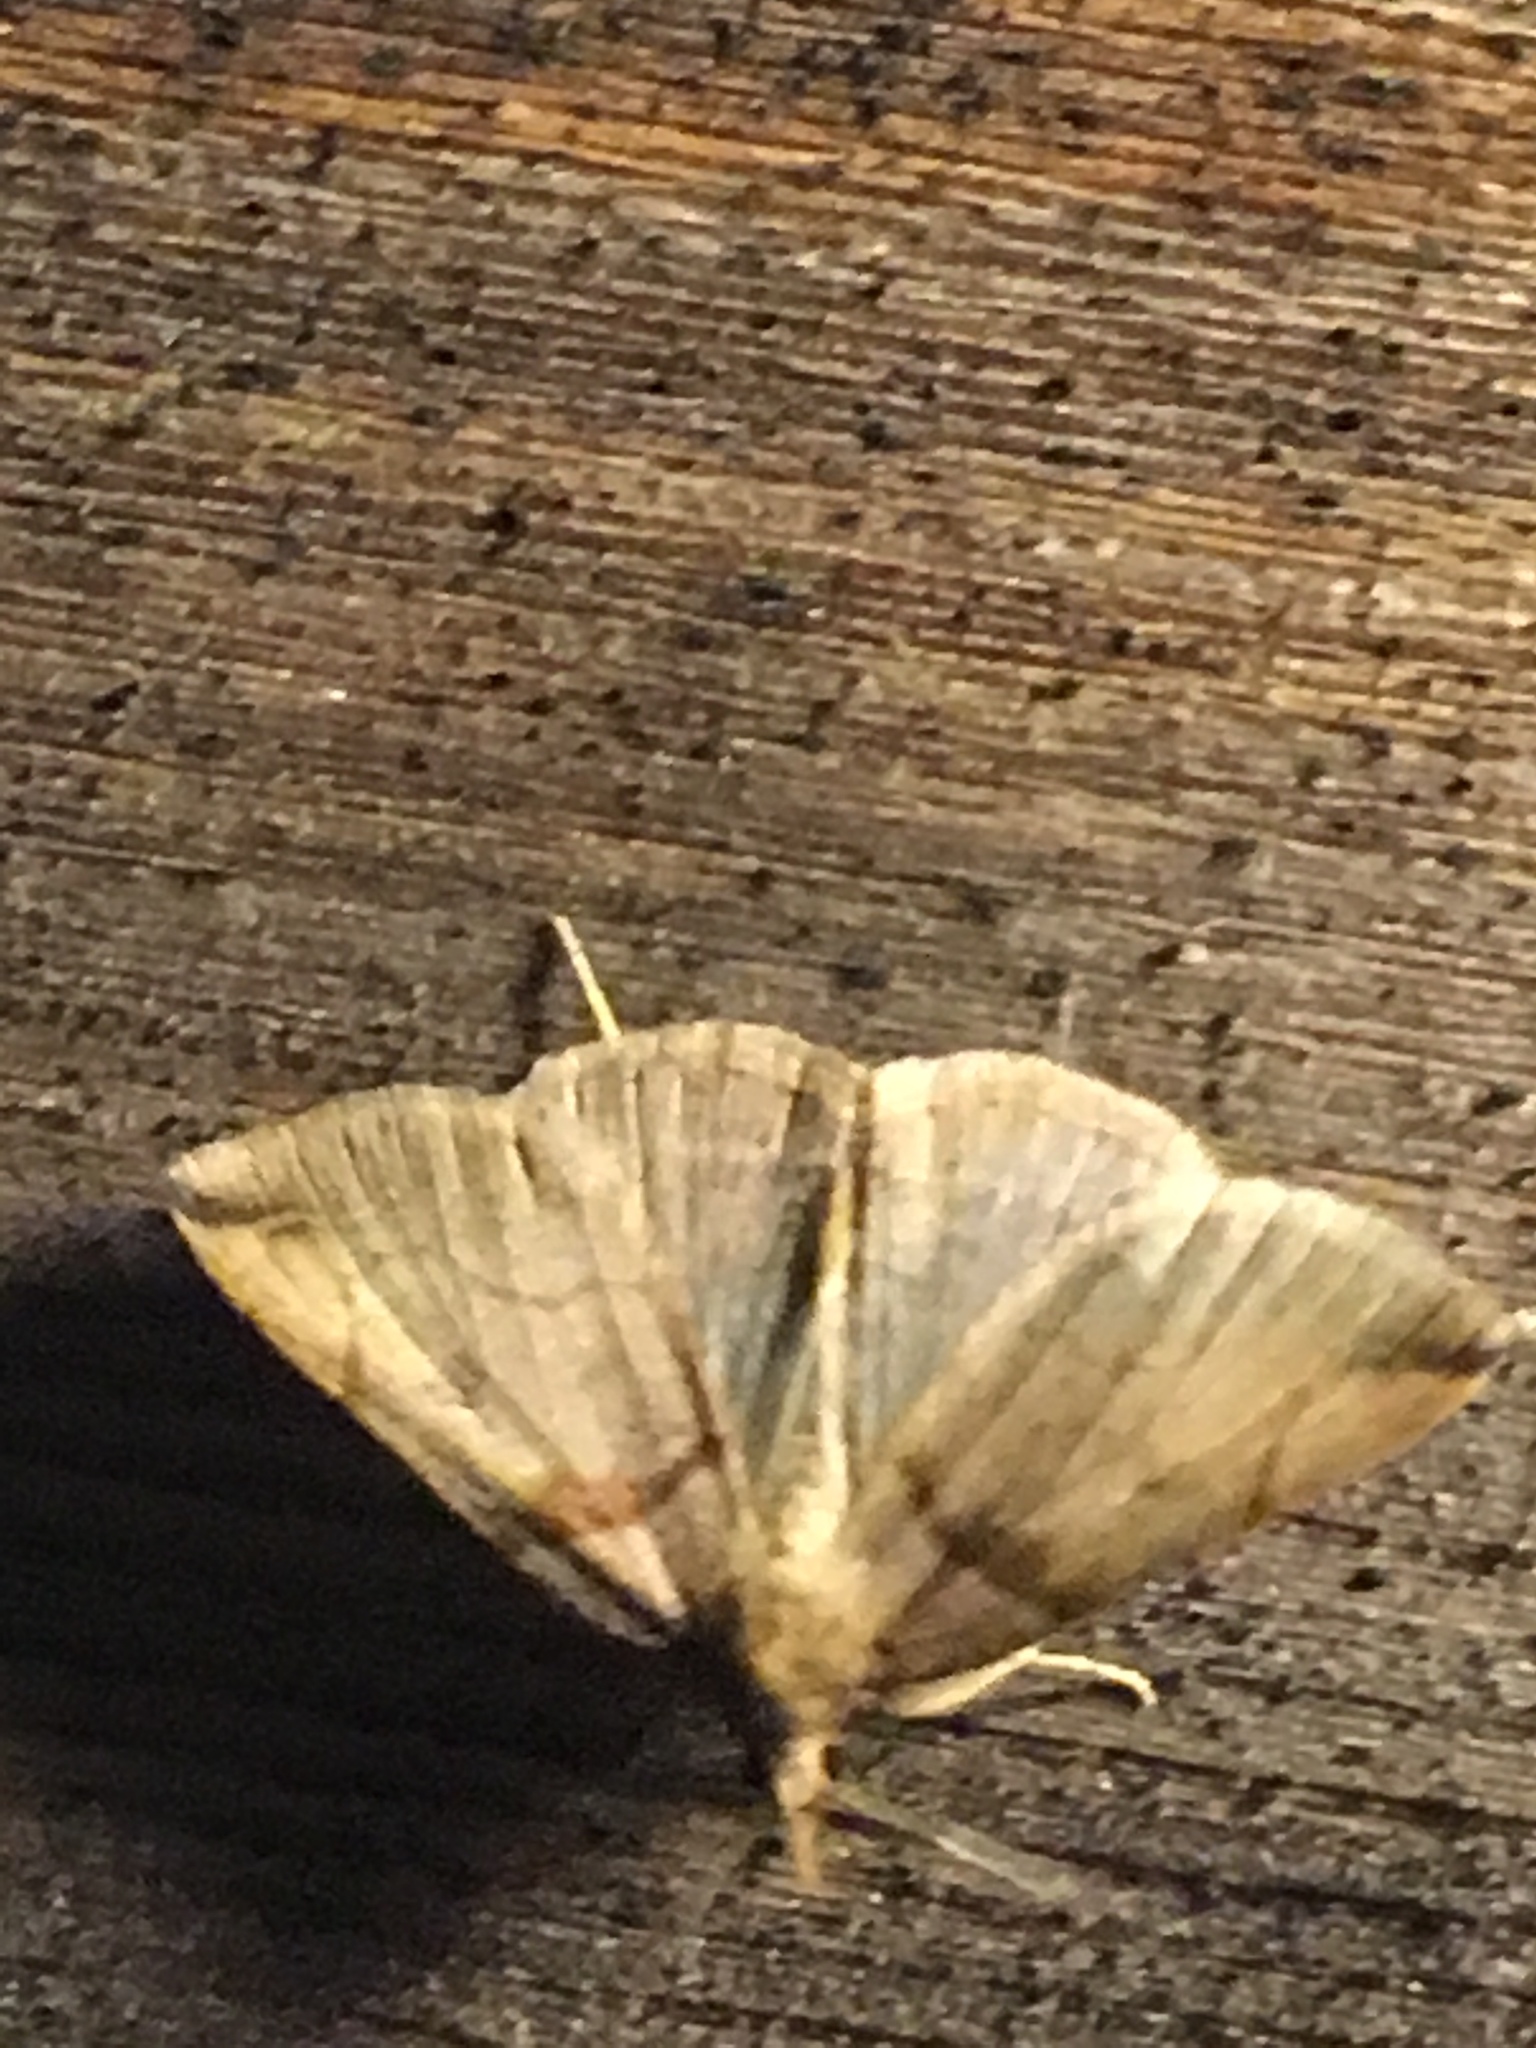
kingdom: Animalia
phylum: Arthropoda
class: Insecta
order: Lepidoptera
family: Erebidae
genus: Zanclognatha
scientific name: Zanclognatha laevigata
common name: Variable fan-foot
